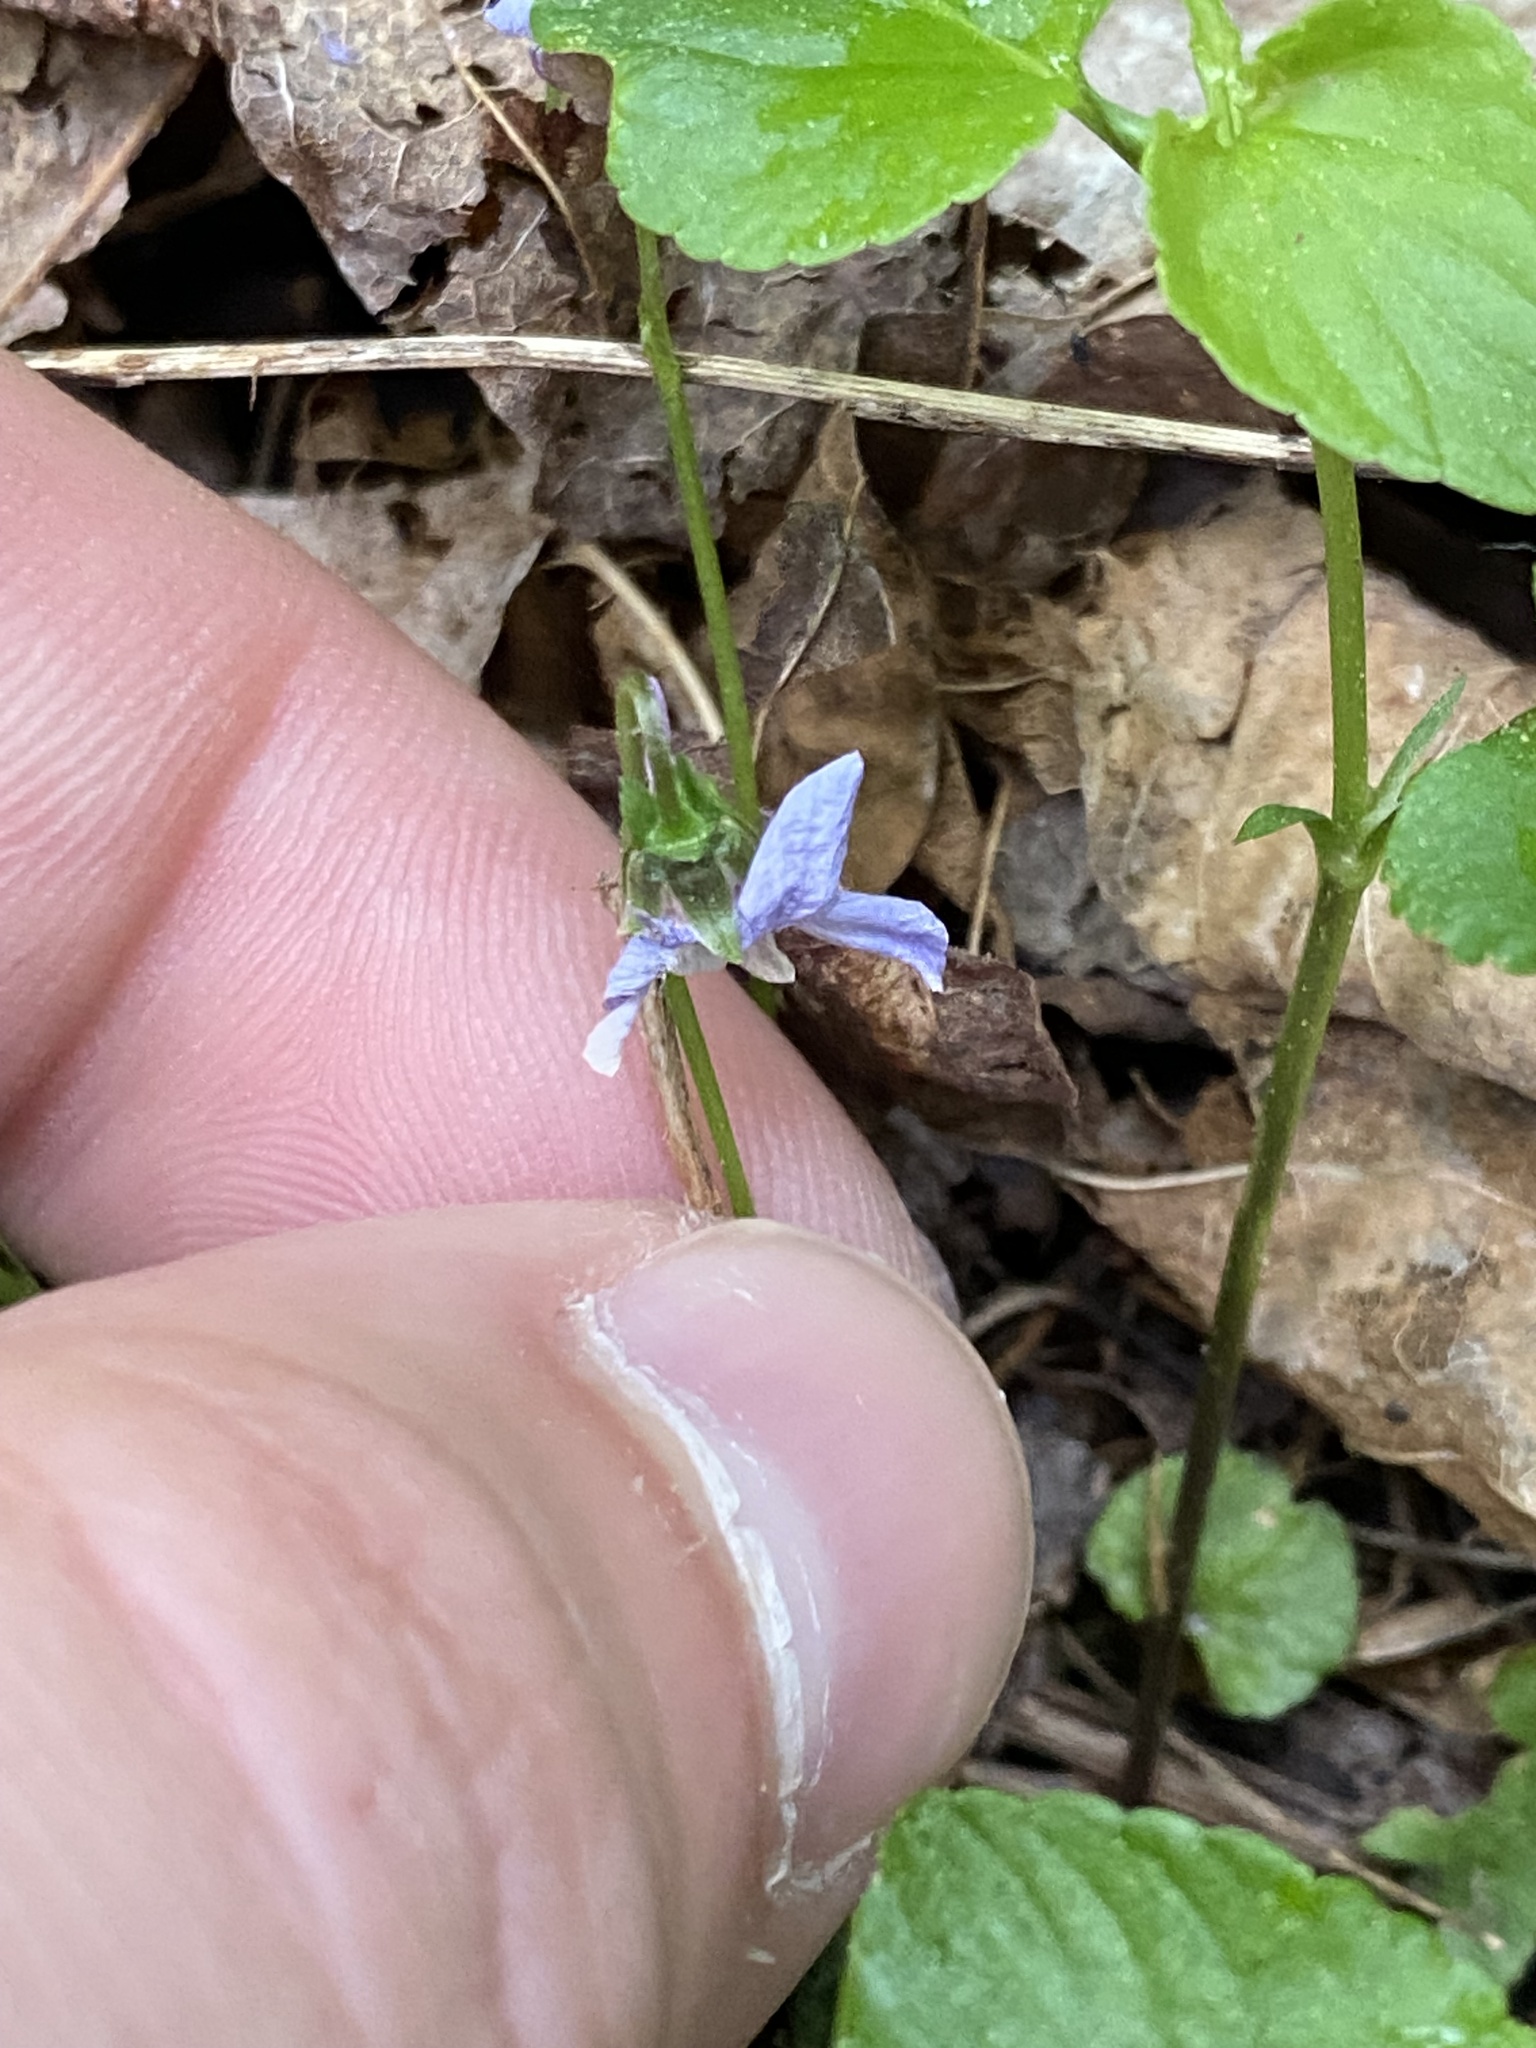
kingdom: Plantae
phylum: Tracheophyta
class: Magnoliopsida
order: Malpighiales
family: Violaceae
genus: Viola
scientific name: Viola rostrata
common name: Long-spur violet
